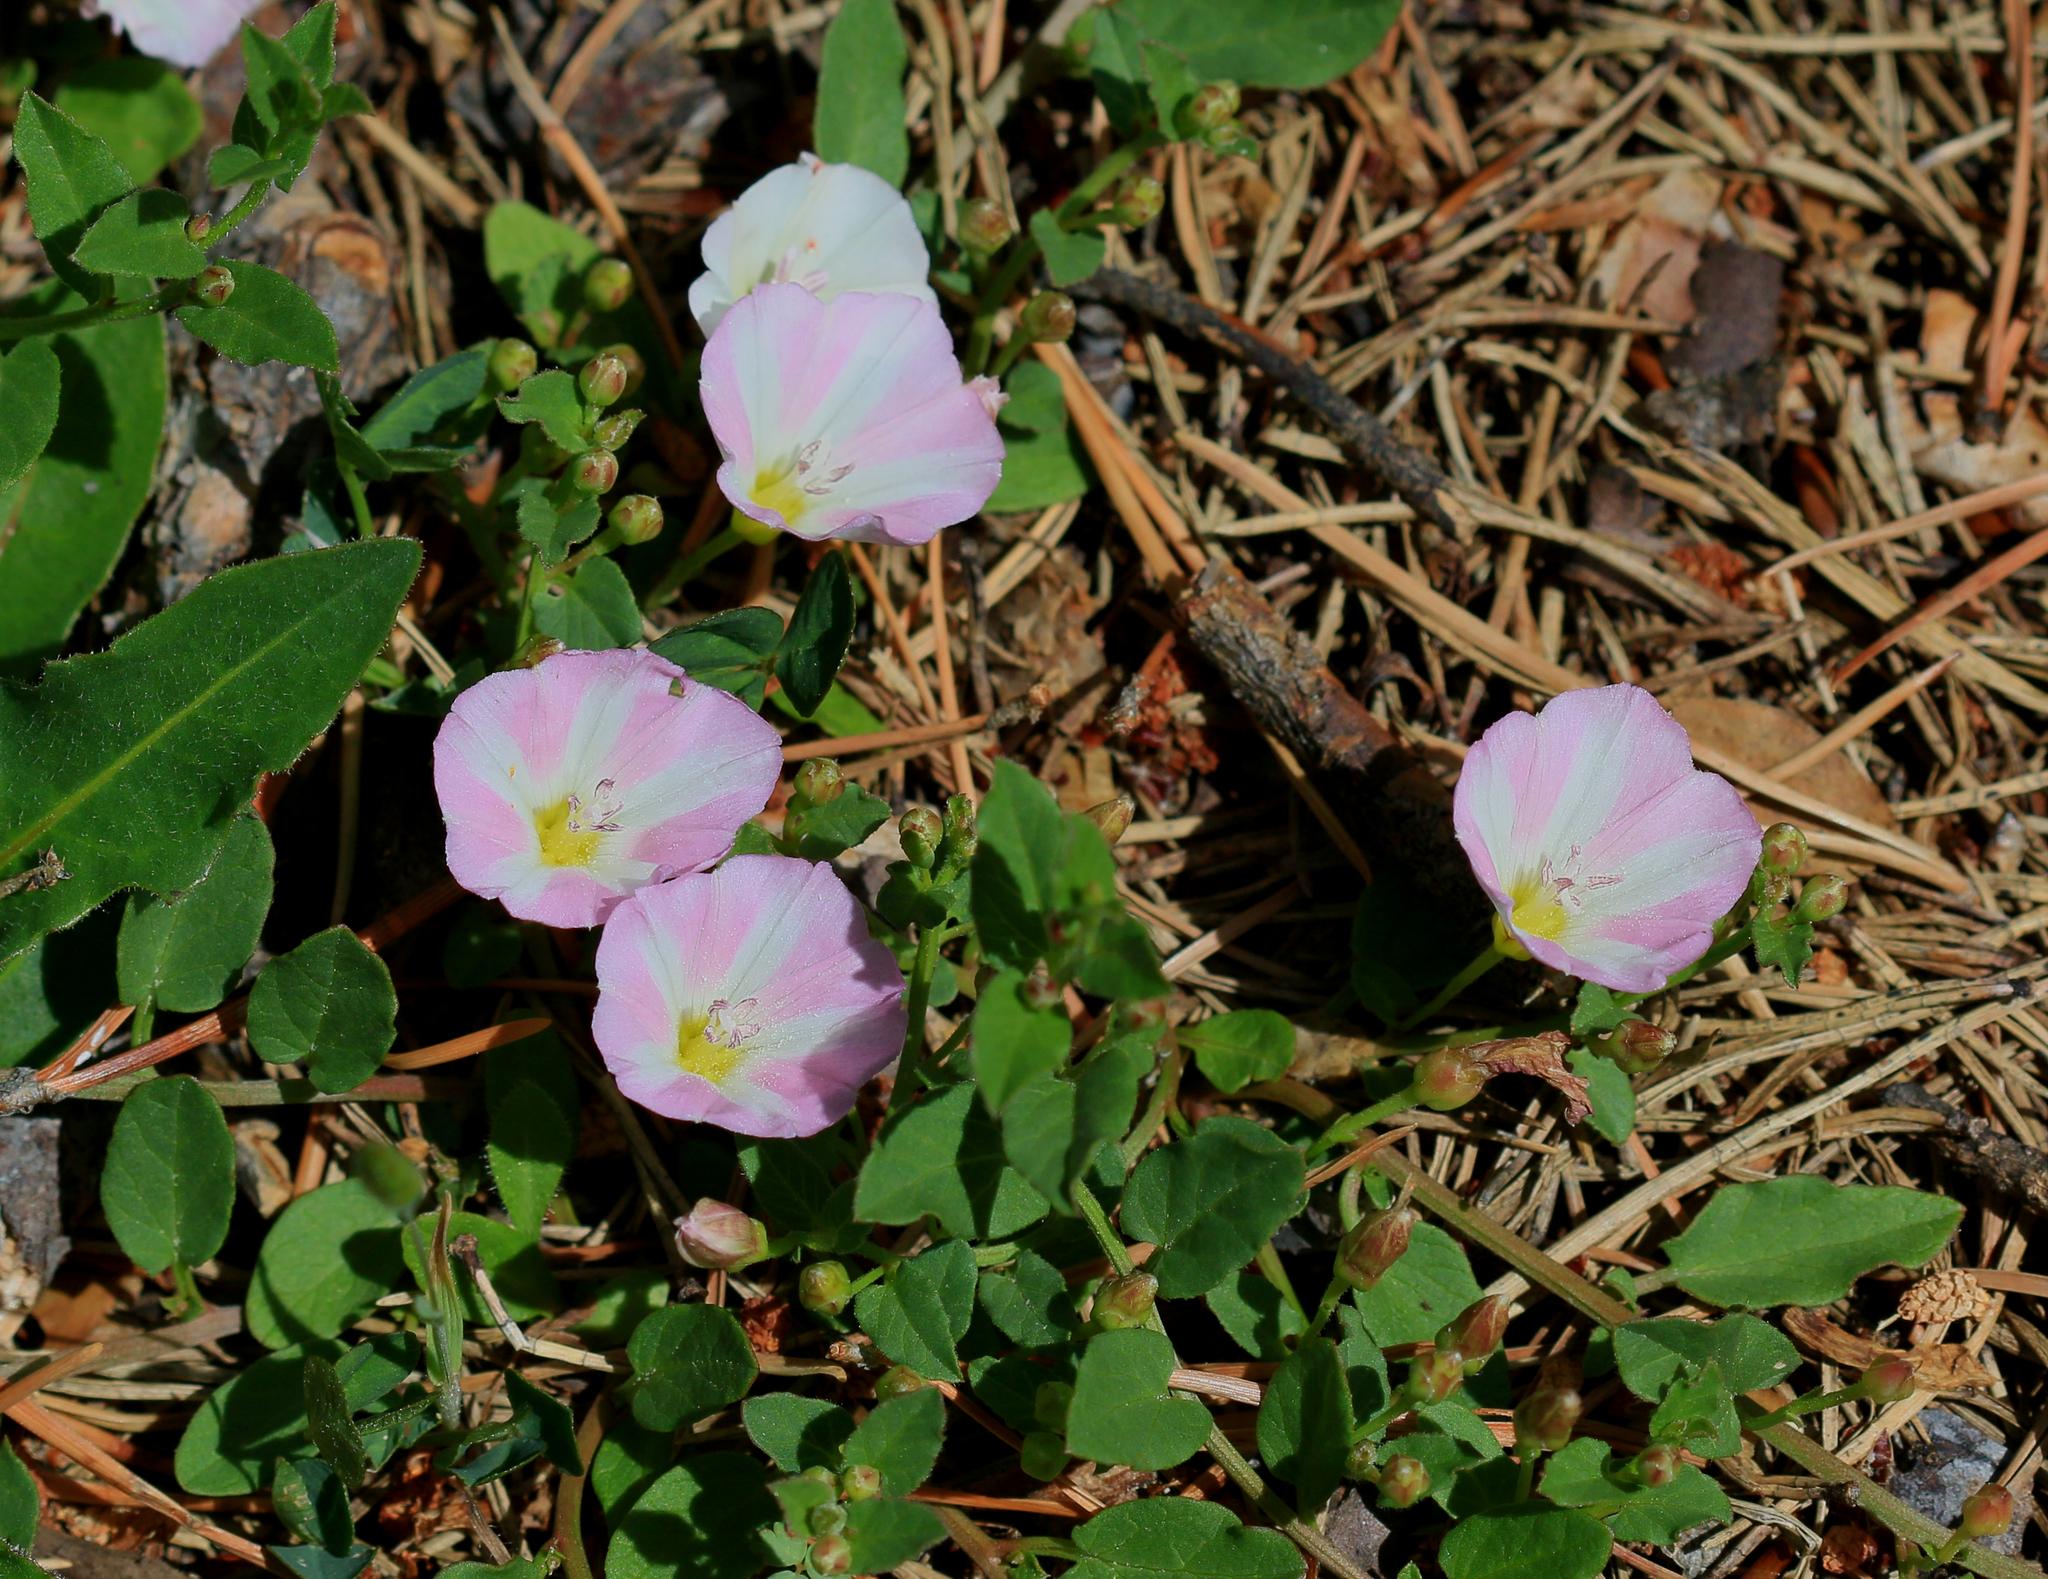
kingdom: Plantae
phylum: Tracheophyta
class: Magnoliopsida
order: Solanales
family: Convolvulaceae
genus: Convolvulus
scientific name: Convolvulus arvensis
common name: Field bindweed
